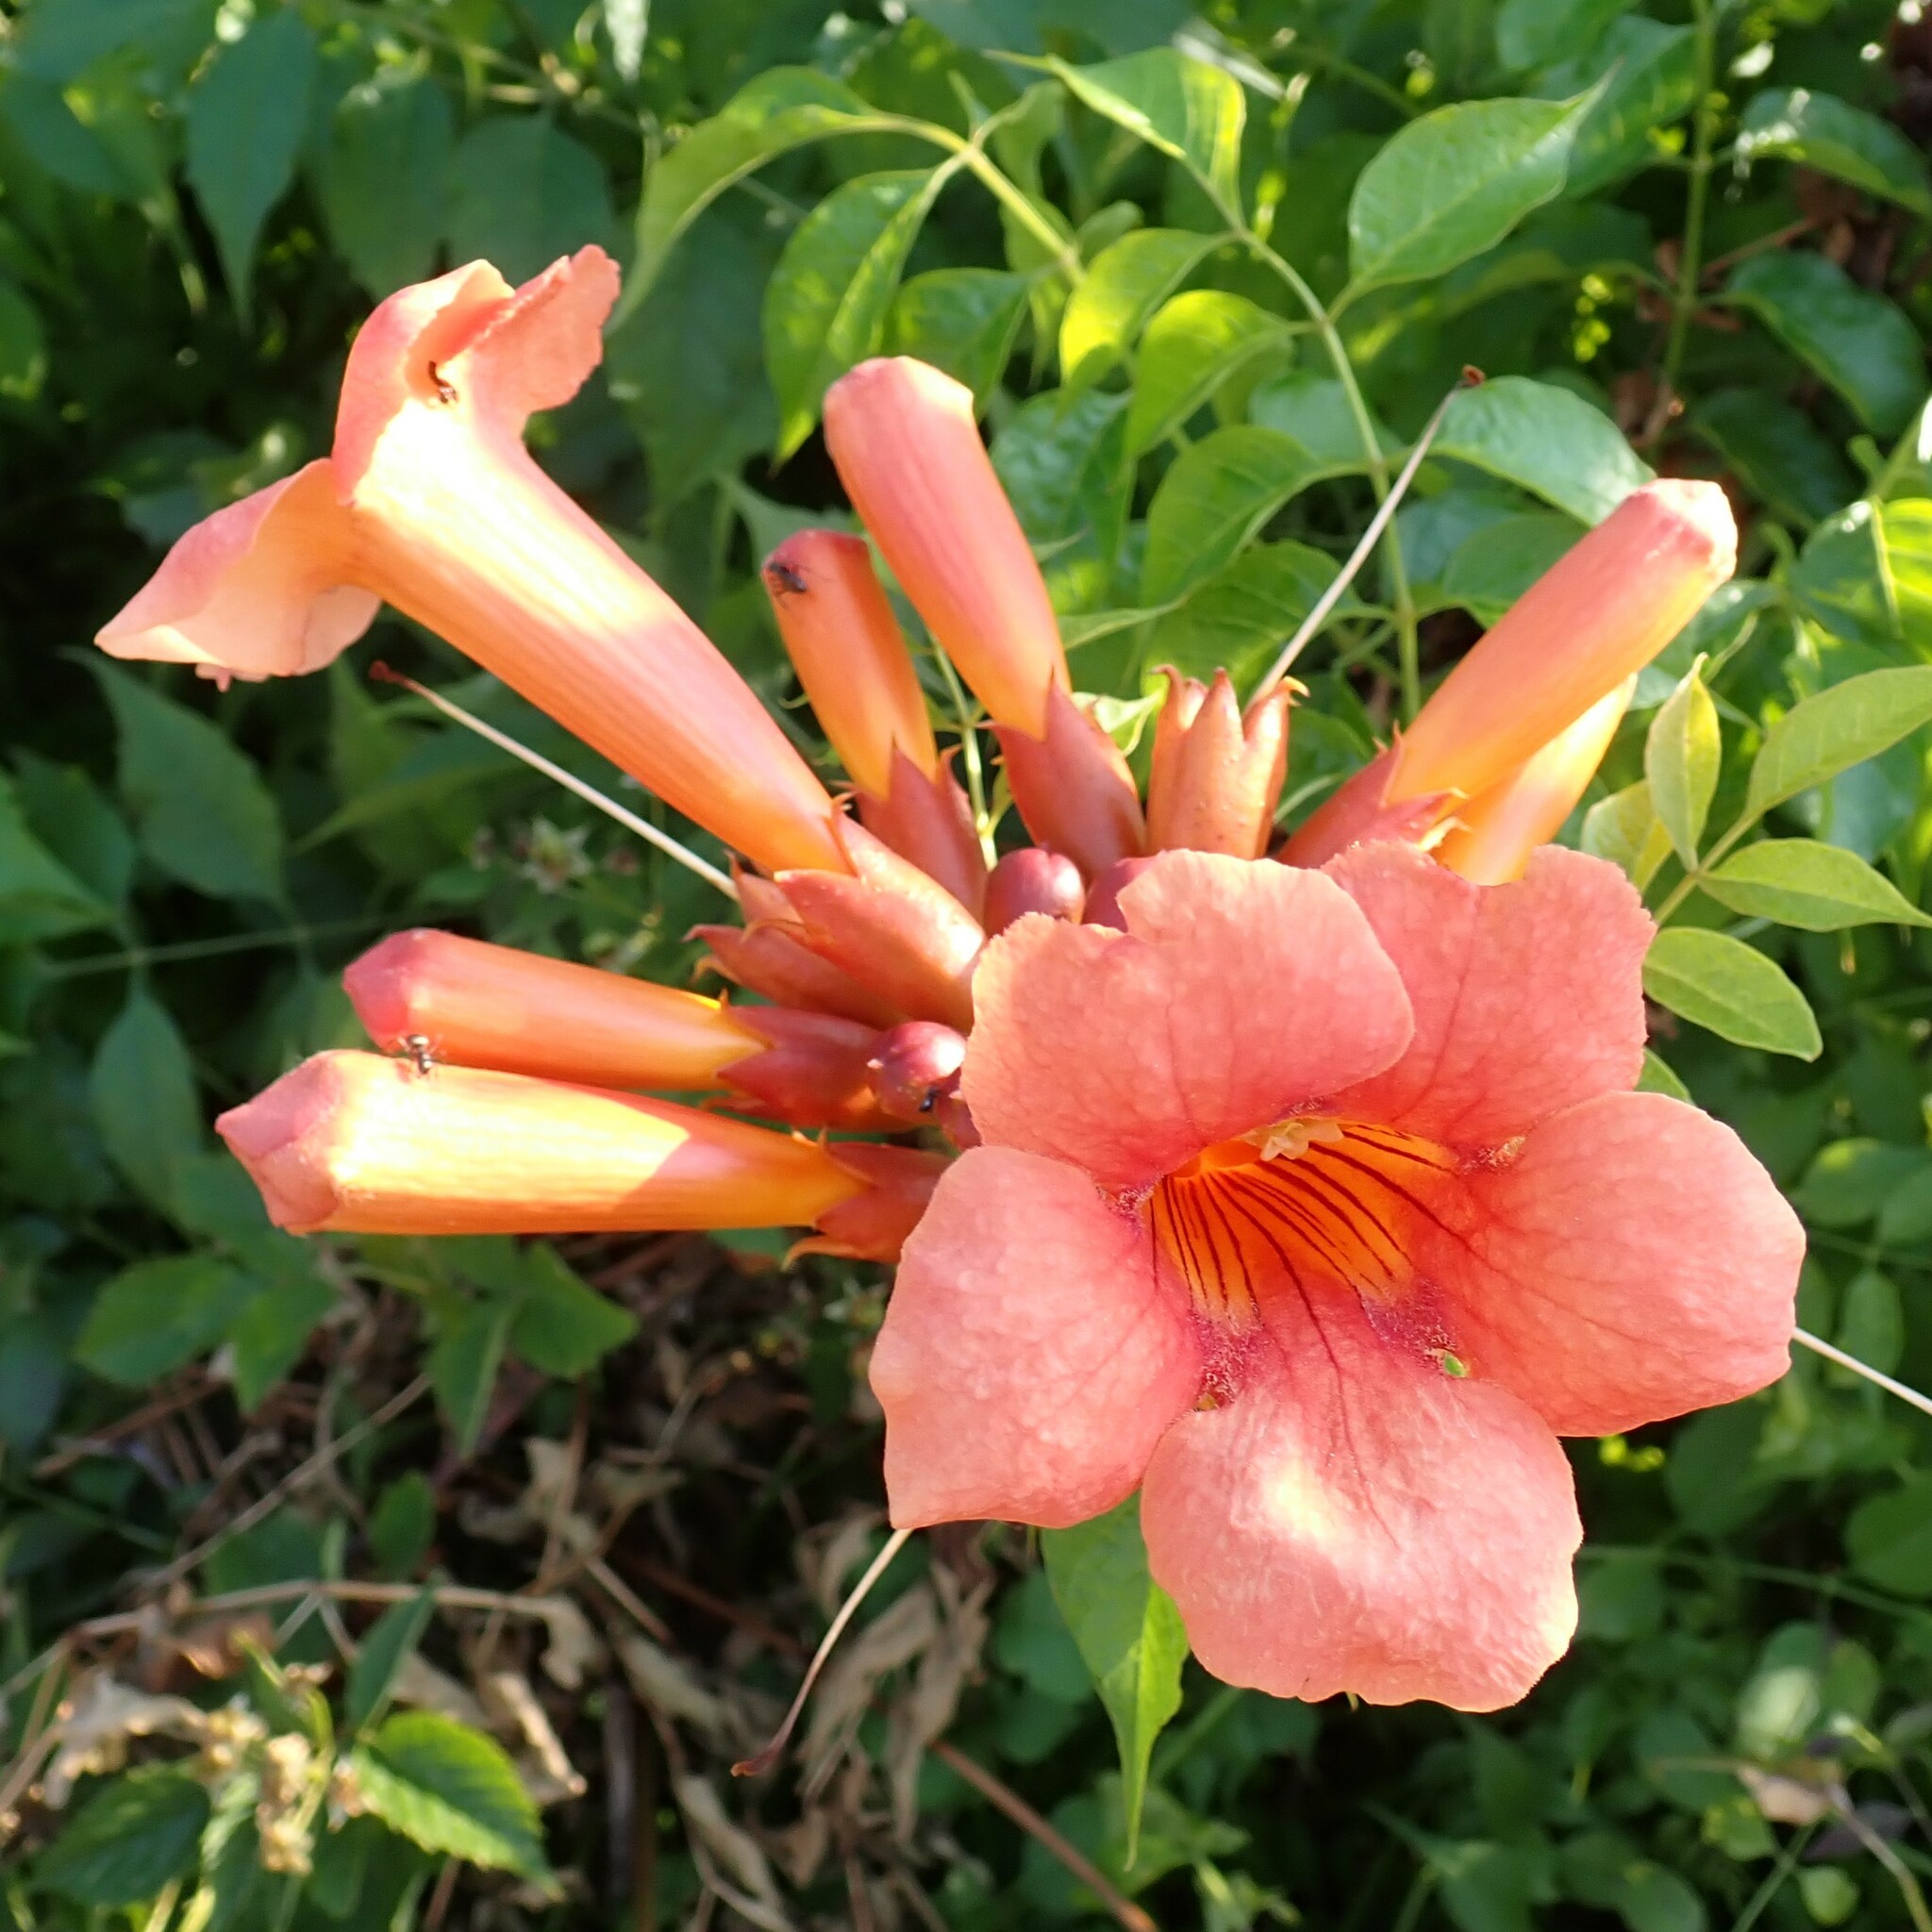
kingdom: Plantae
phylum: Tracheophyta
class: Magnoliopsida
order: Lamiales
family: Bignoniaceae
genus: Campsis
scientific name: Campsis radicans
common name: Trumpet-creeper
